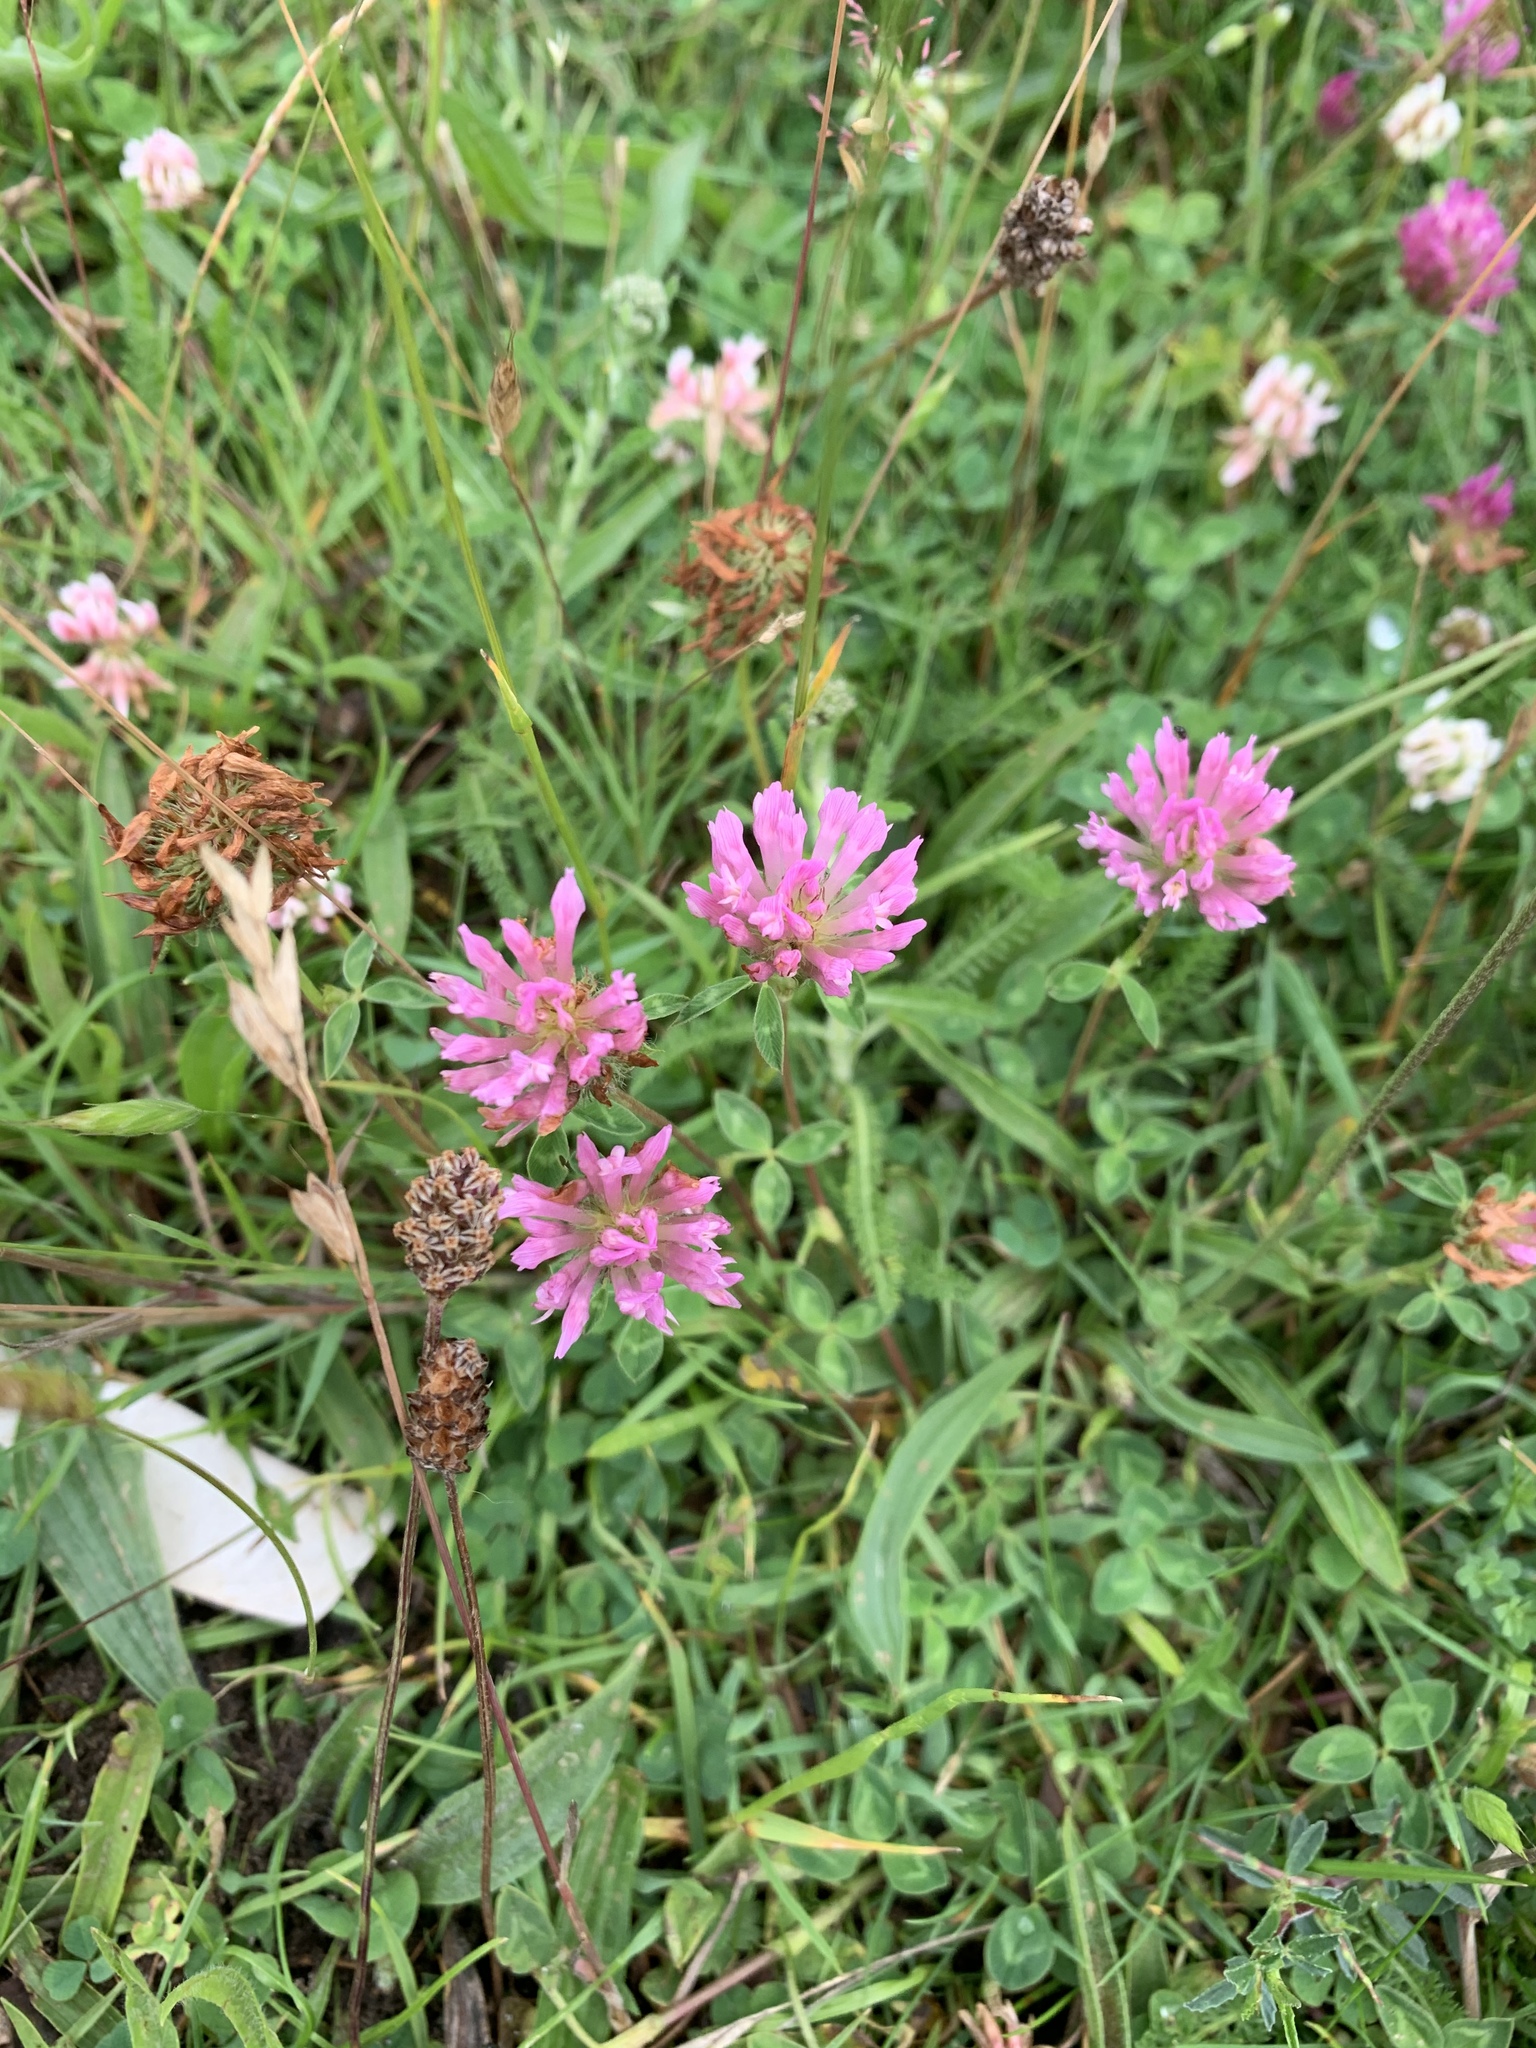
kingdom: Plantae
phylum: Tracheophyta
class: Magnoliopsida
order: Fabales
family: Fabaceae
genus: Trifolium
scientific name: Trifolium pratense
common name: Red clover
